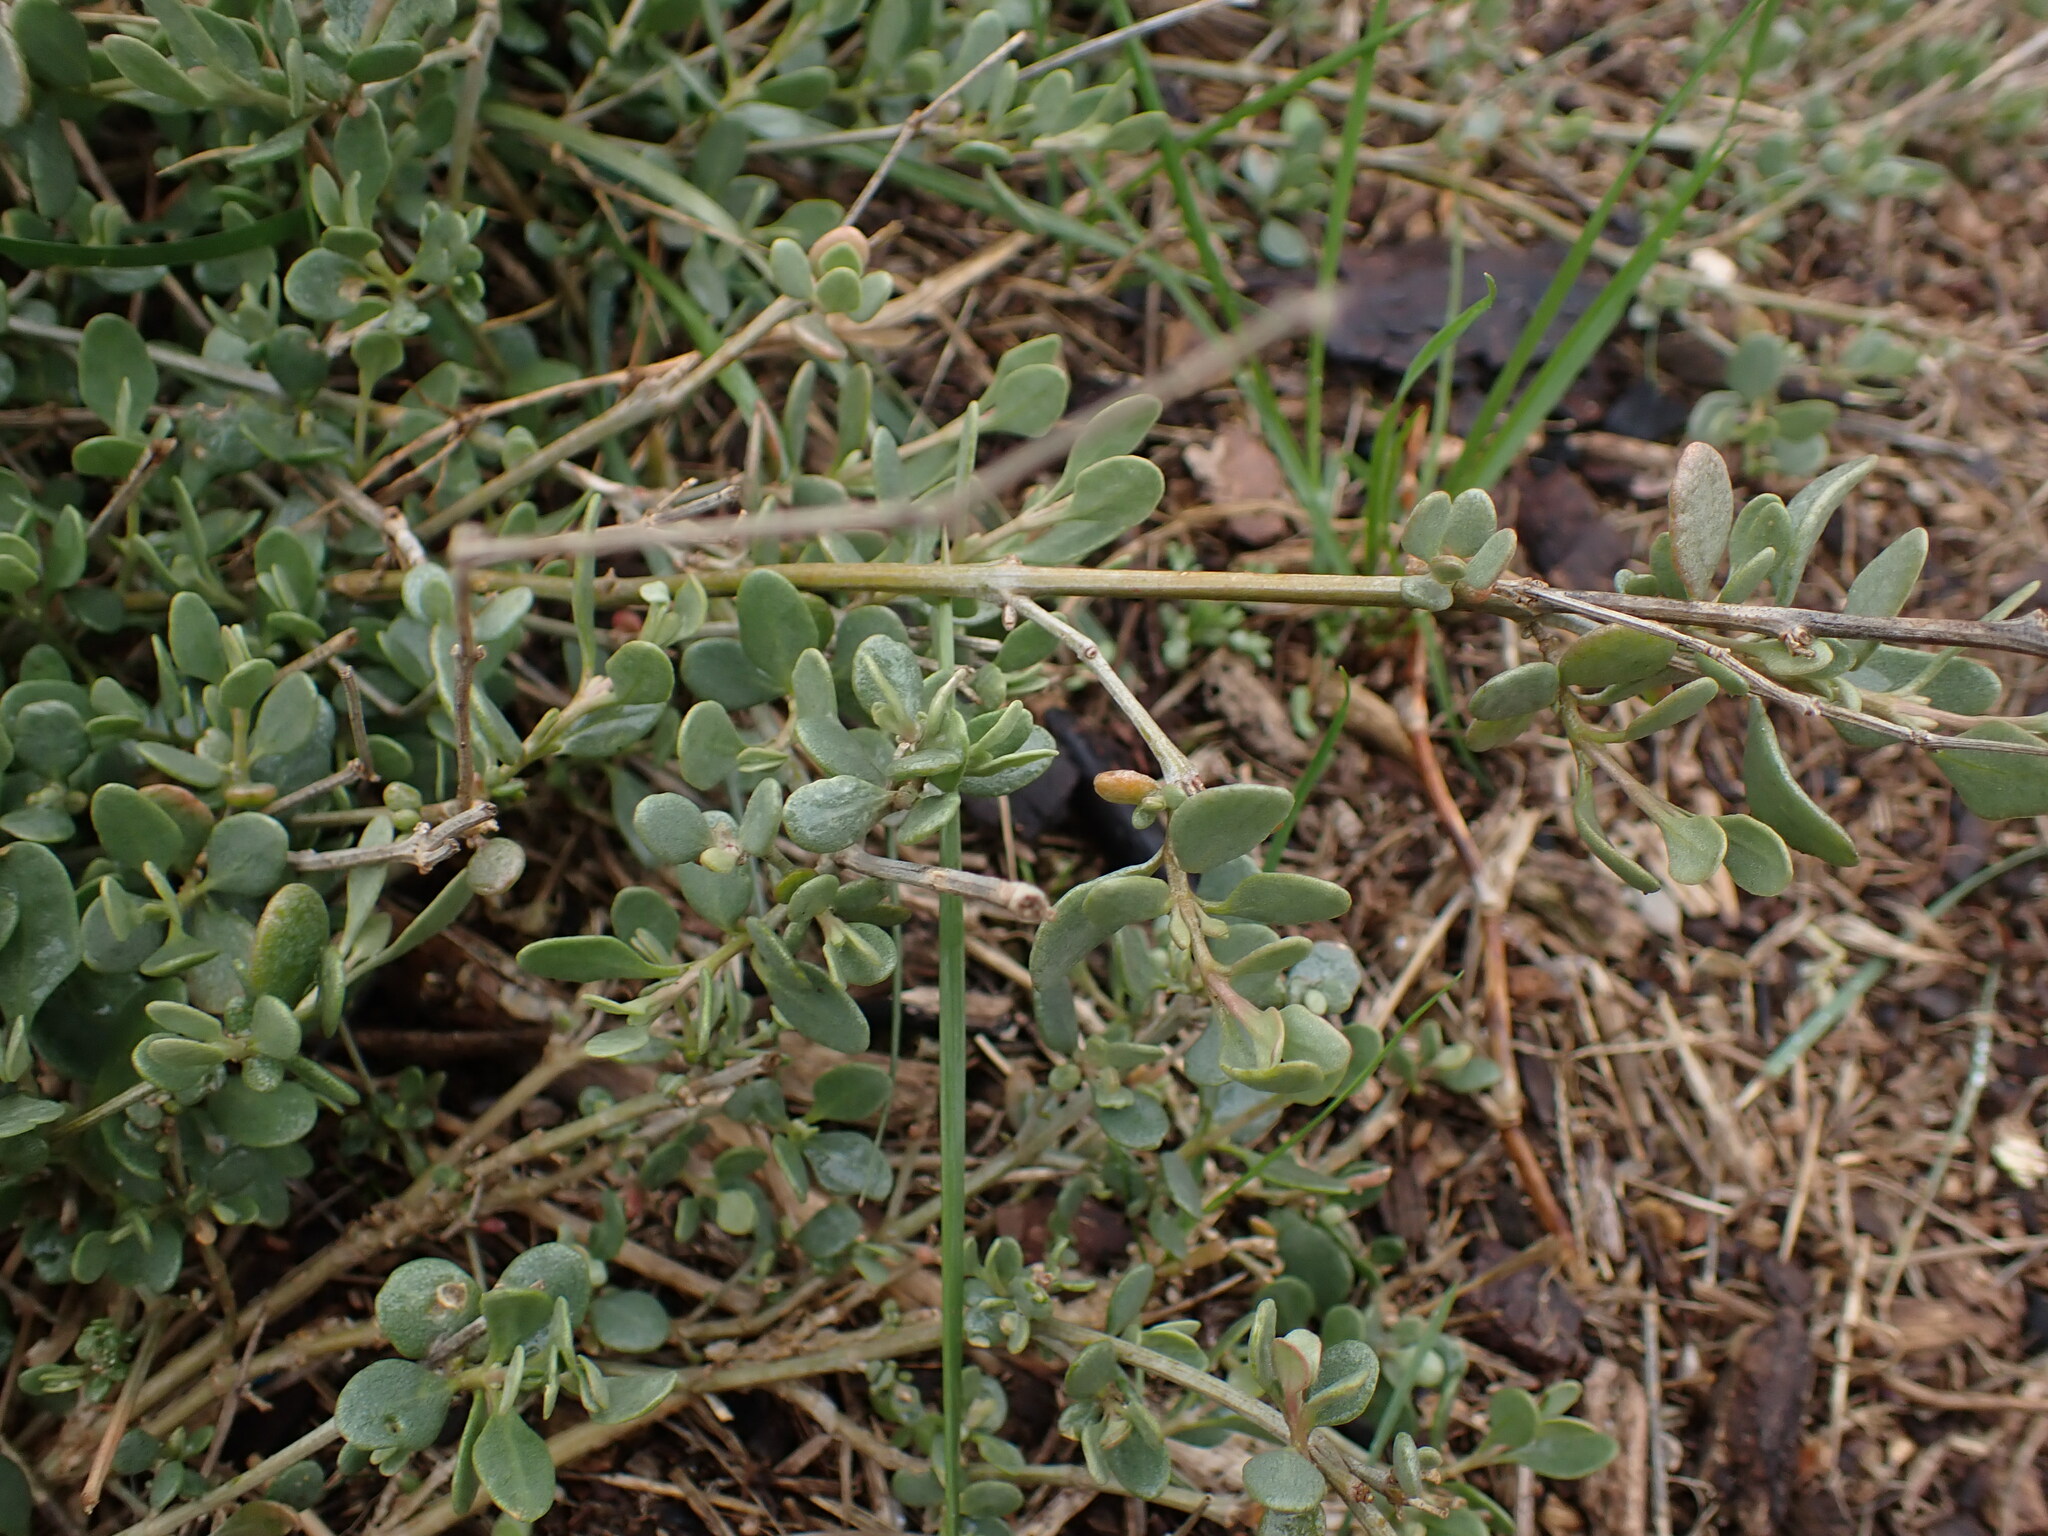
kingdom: Plantae
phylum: Tracheophyta
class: Magnoliopsida
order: Caryophyllales
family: Amaranthaceae
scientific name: Amaranthaceae
